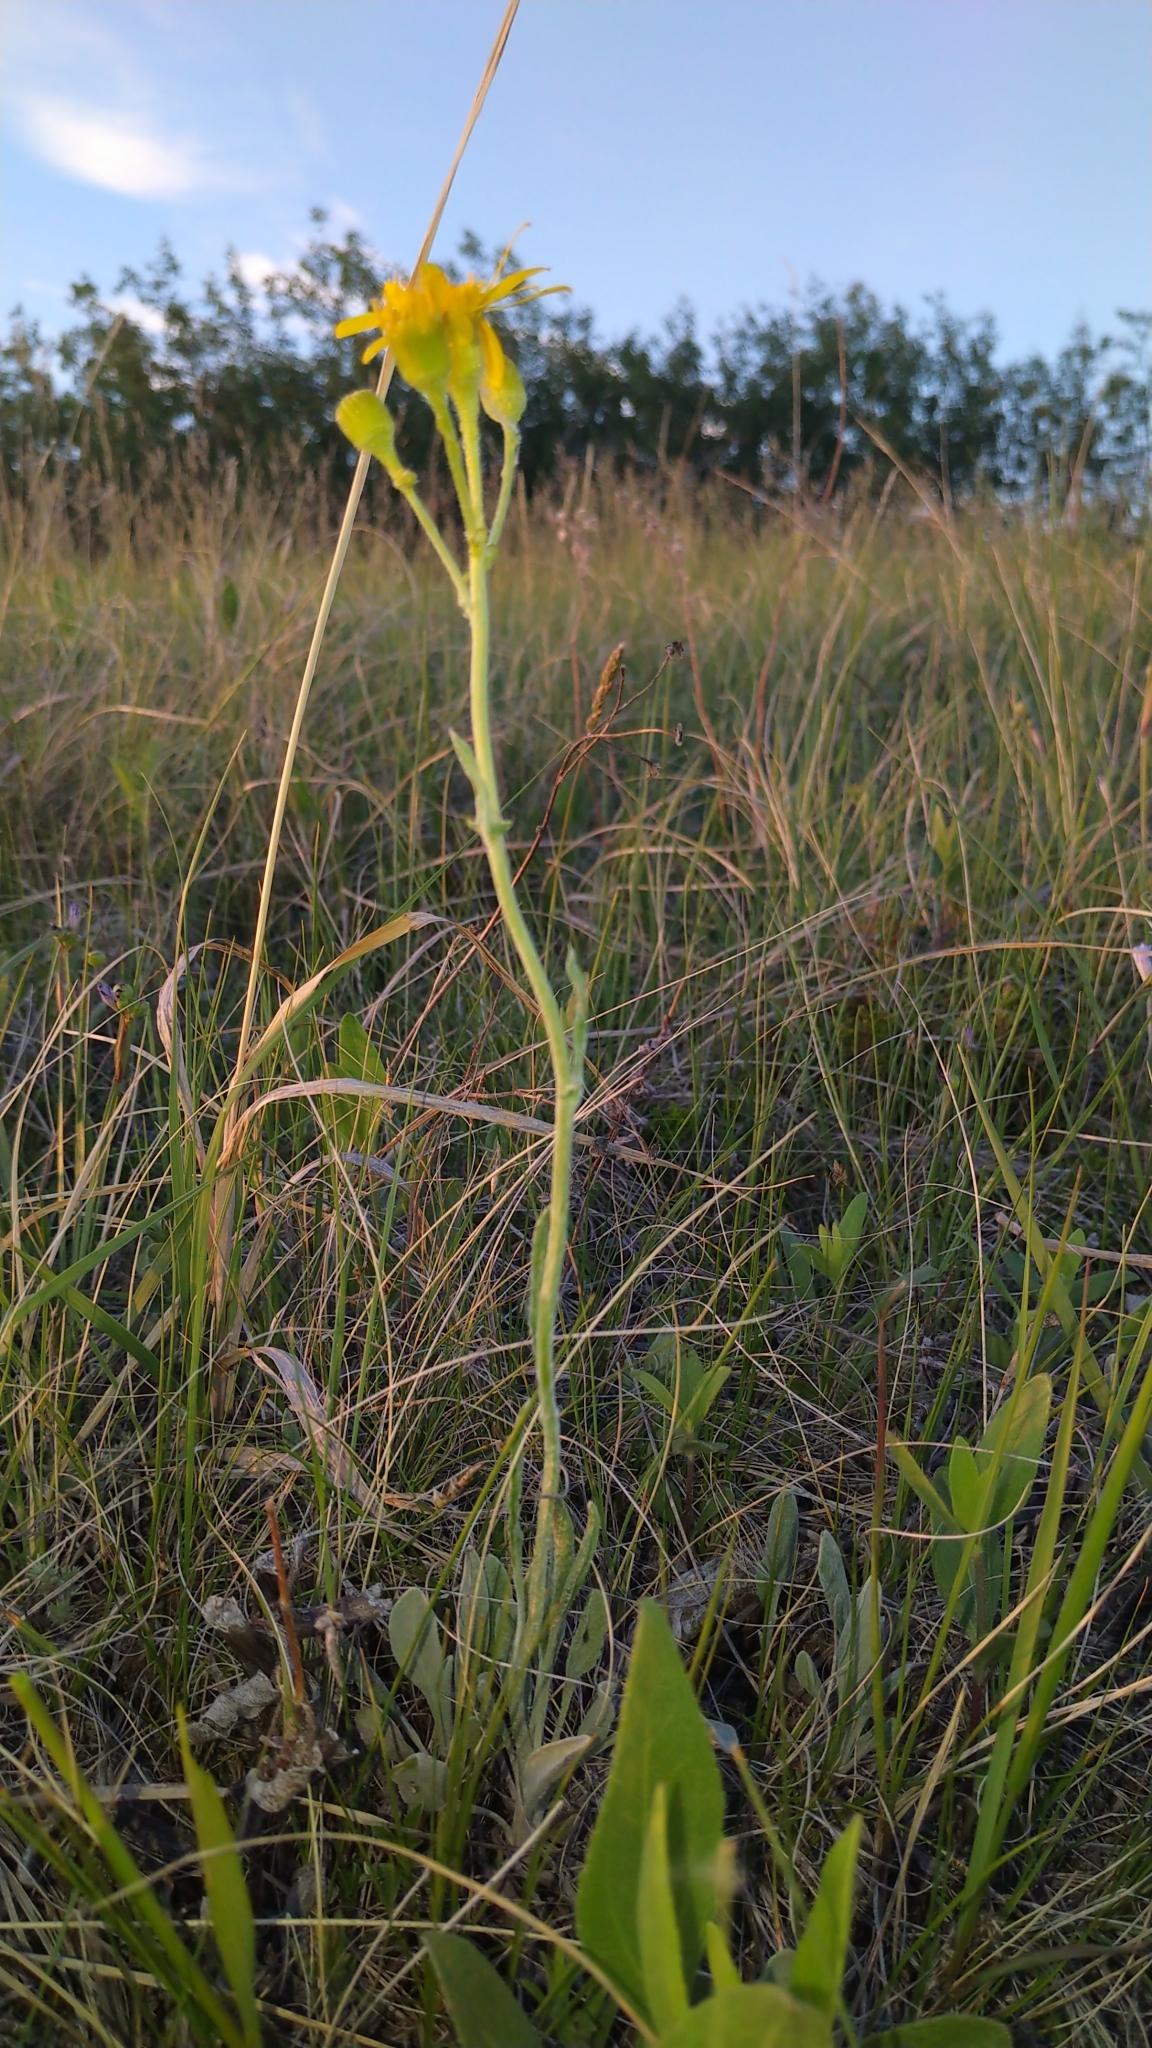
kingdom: Plantae
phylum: Tracheophyta
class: Magnoliopsida
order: Asterales
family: Asteraceae
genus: Packera
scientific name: Packera cana
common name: Woolly groundsel
